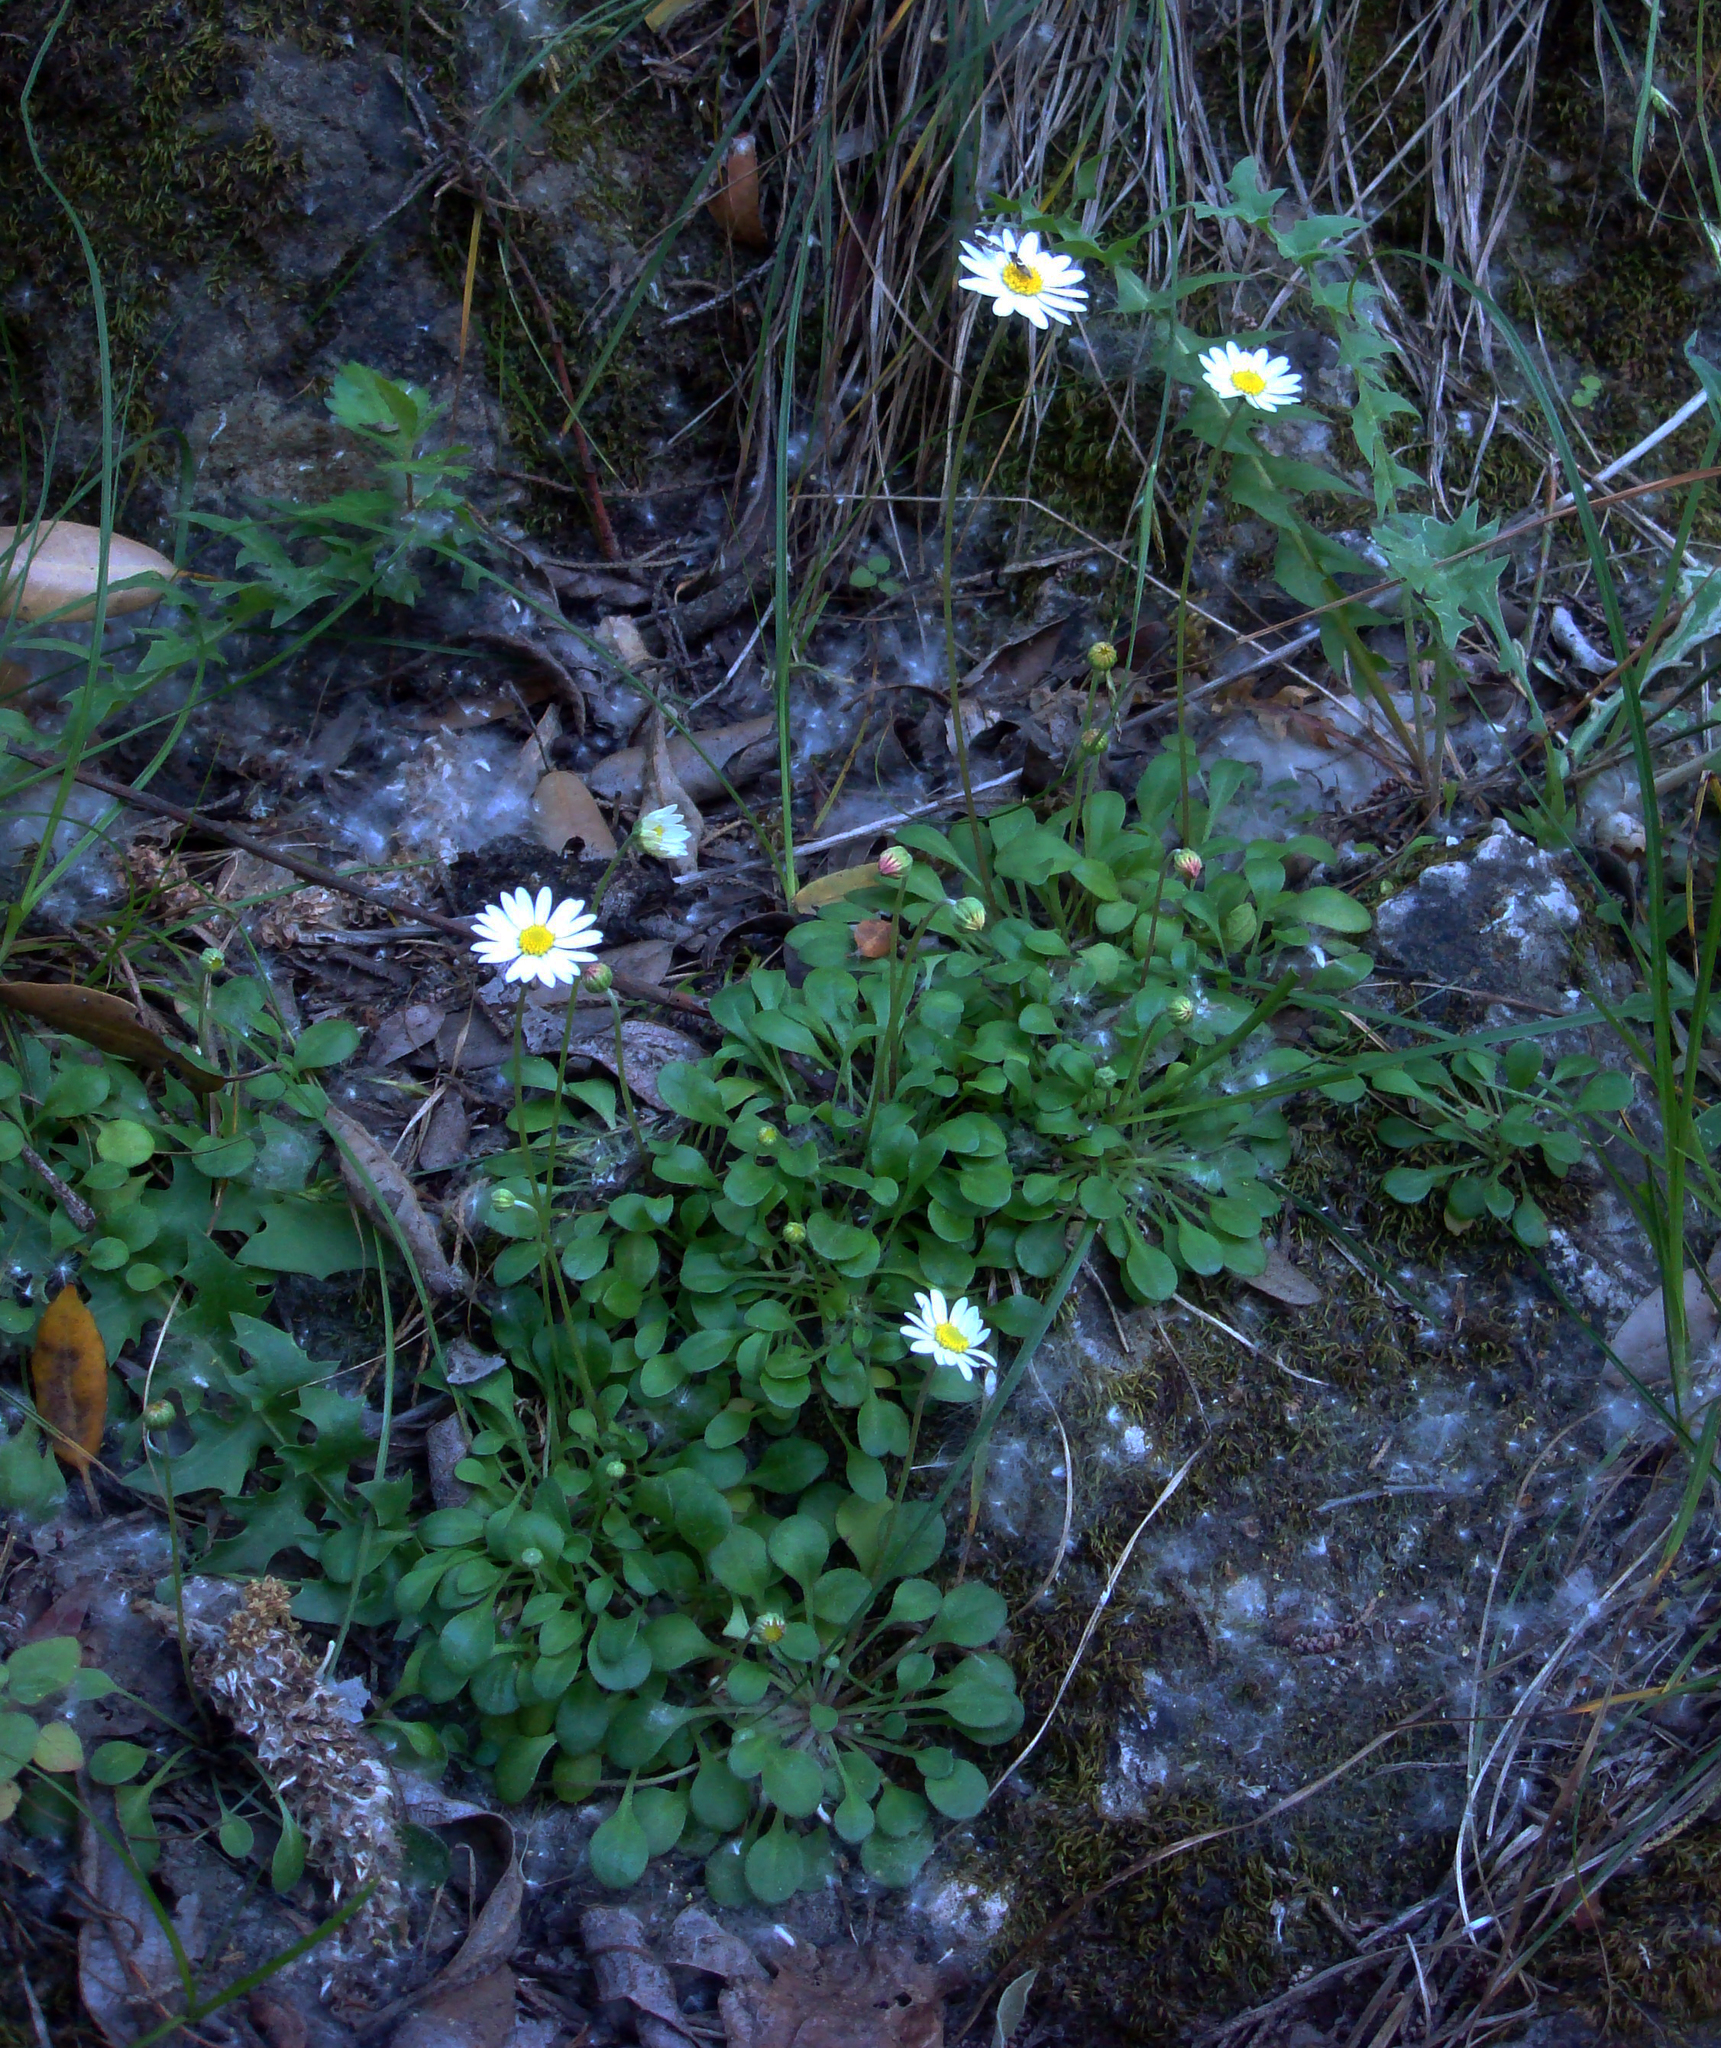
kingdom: Plantae
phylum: Tracheophyta
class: Magnoliopsida
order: Asterales
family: Asteraceae
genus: Bellium
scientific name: Bellium crassifolium
